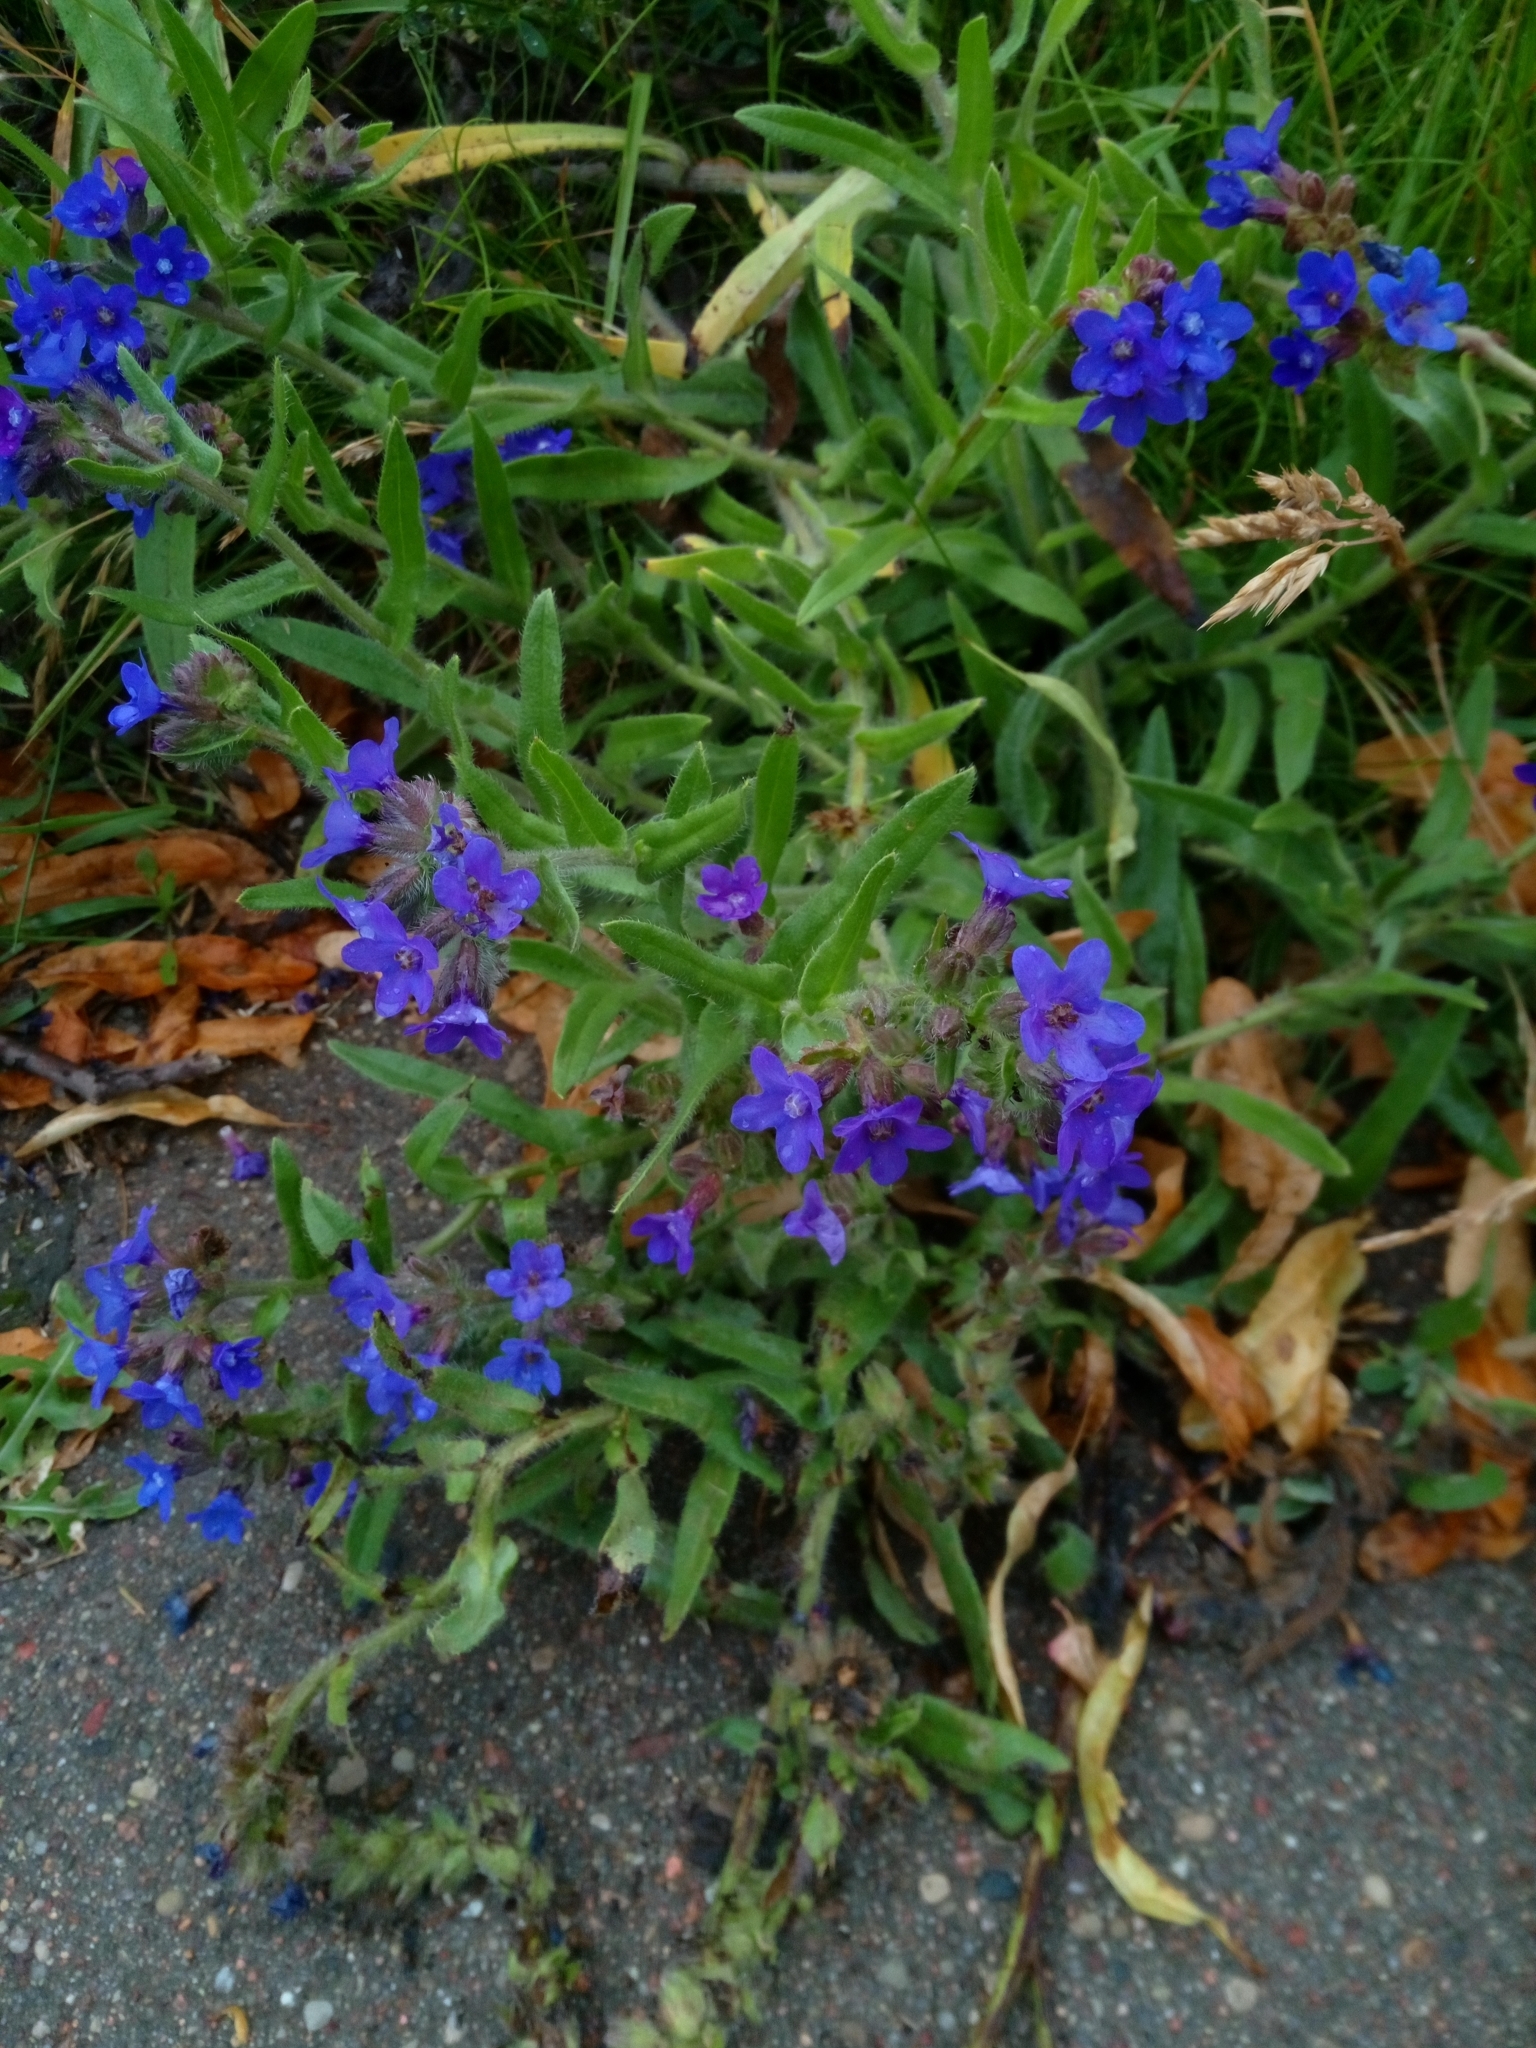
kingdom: Plantae
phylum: Tracheophyta
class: Magnoliopsida
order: Boraginales
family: Boraginaceae
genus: Anchusa
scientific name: Anchusa officinalis
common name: Alkanet
